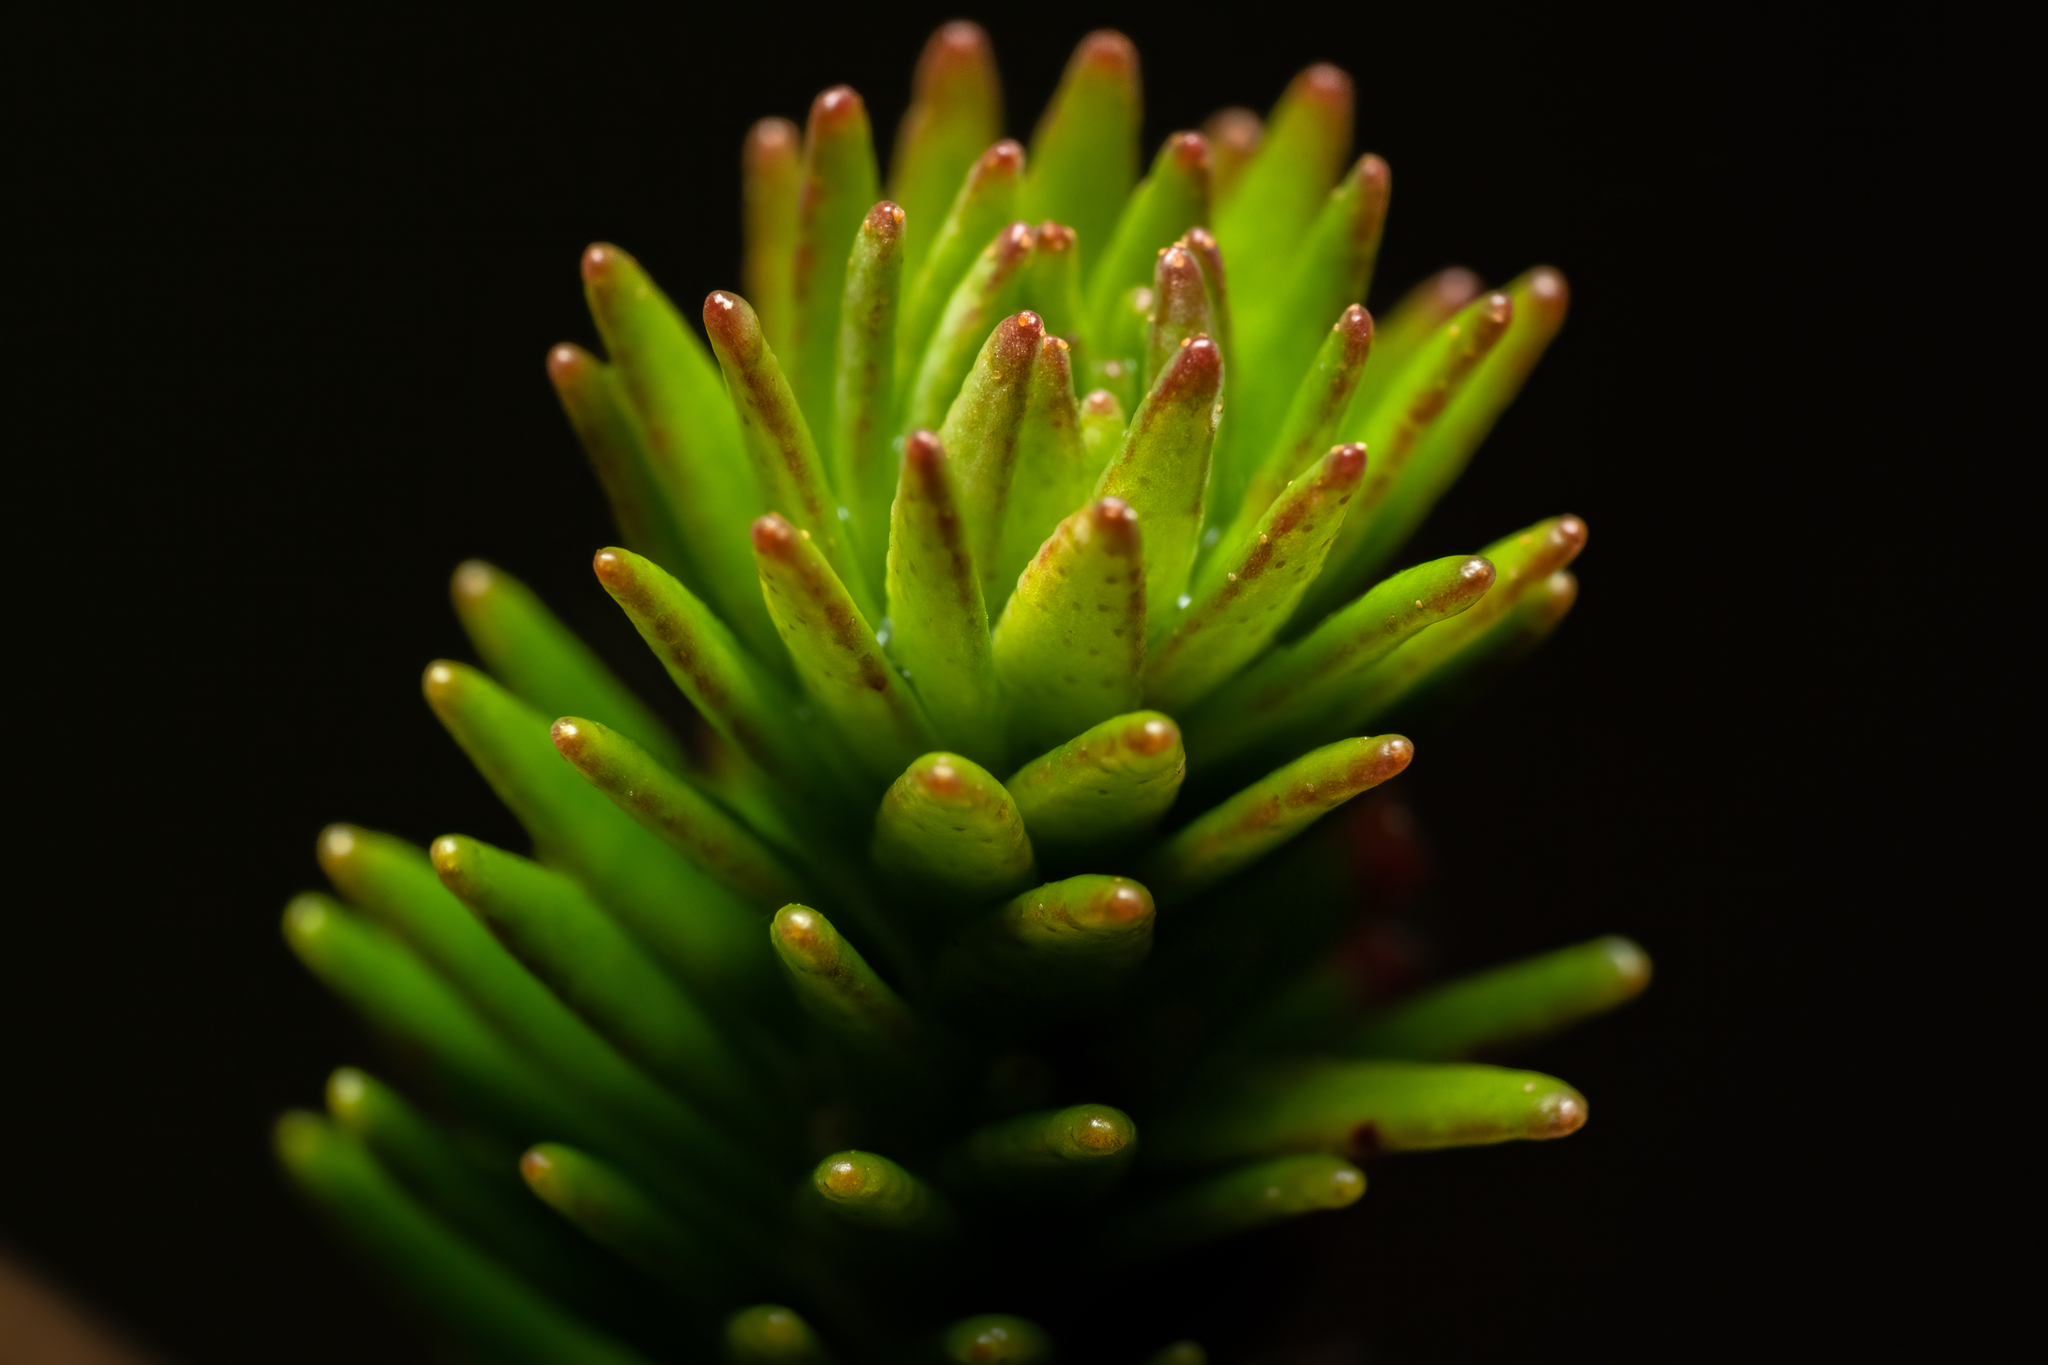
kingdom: Plantae
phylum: Tracheophyta
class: Magnoliopsida
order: Ericales
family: Ericaceae
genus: Rhododendron
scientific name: Rhododendron ericoides
